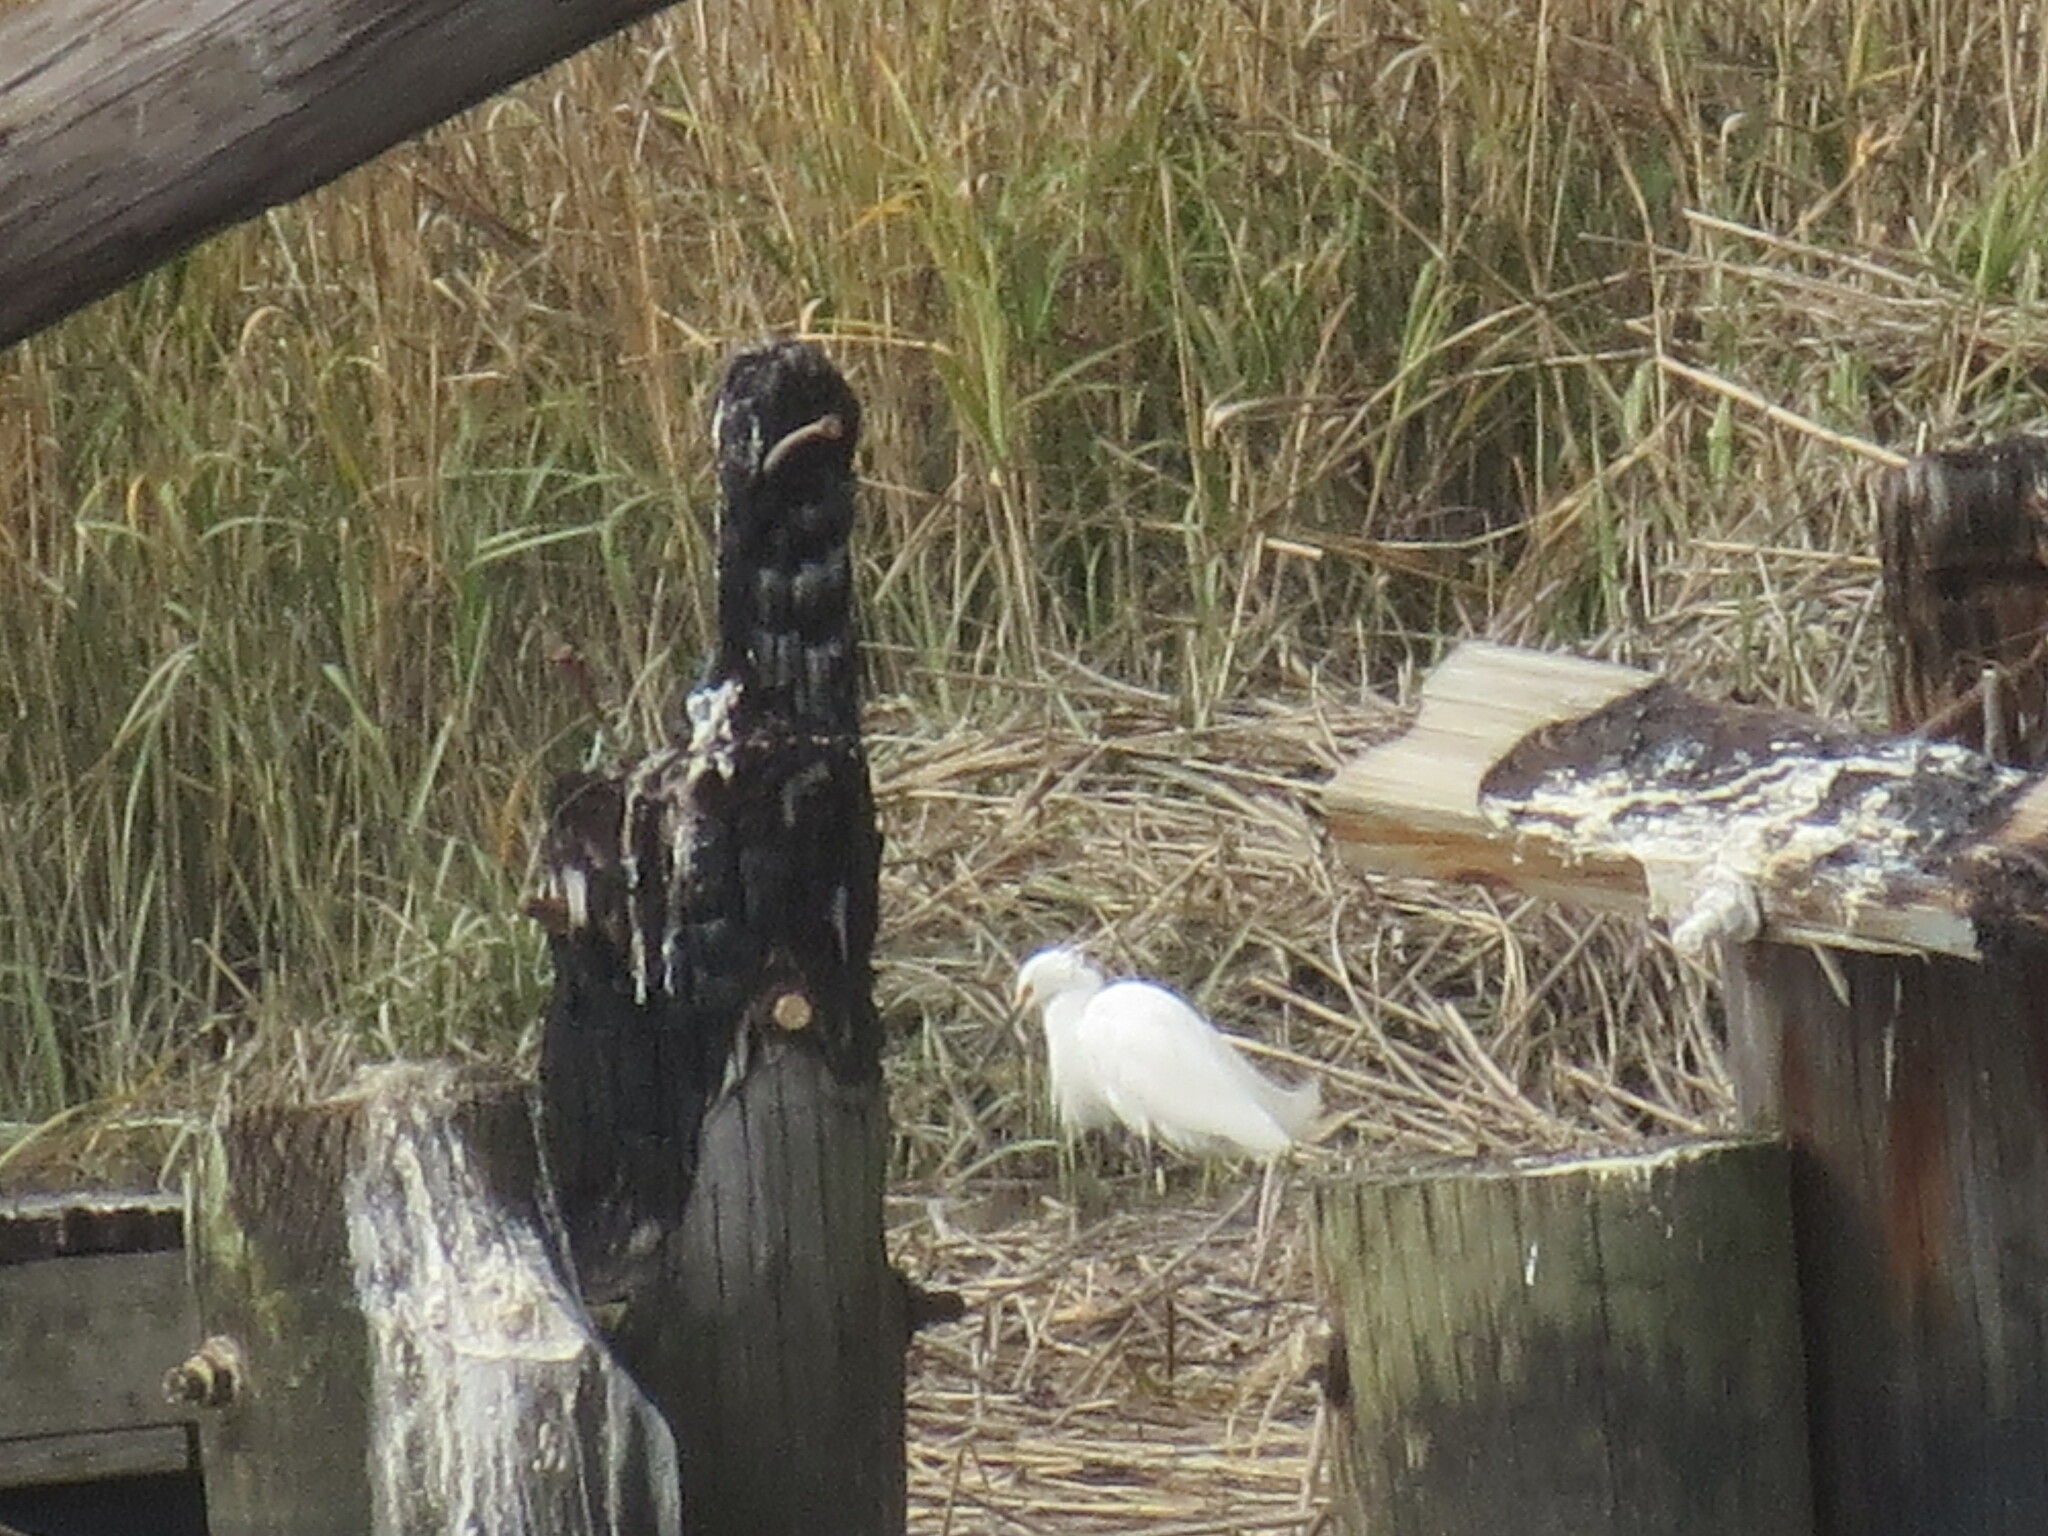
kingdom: Animalia
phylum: Chordata
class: Aves
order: Pelecaniformes
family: Ardeidae
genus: Egretta
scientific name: Egretta thula
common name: Snowy egret
